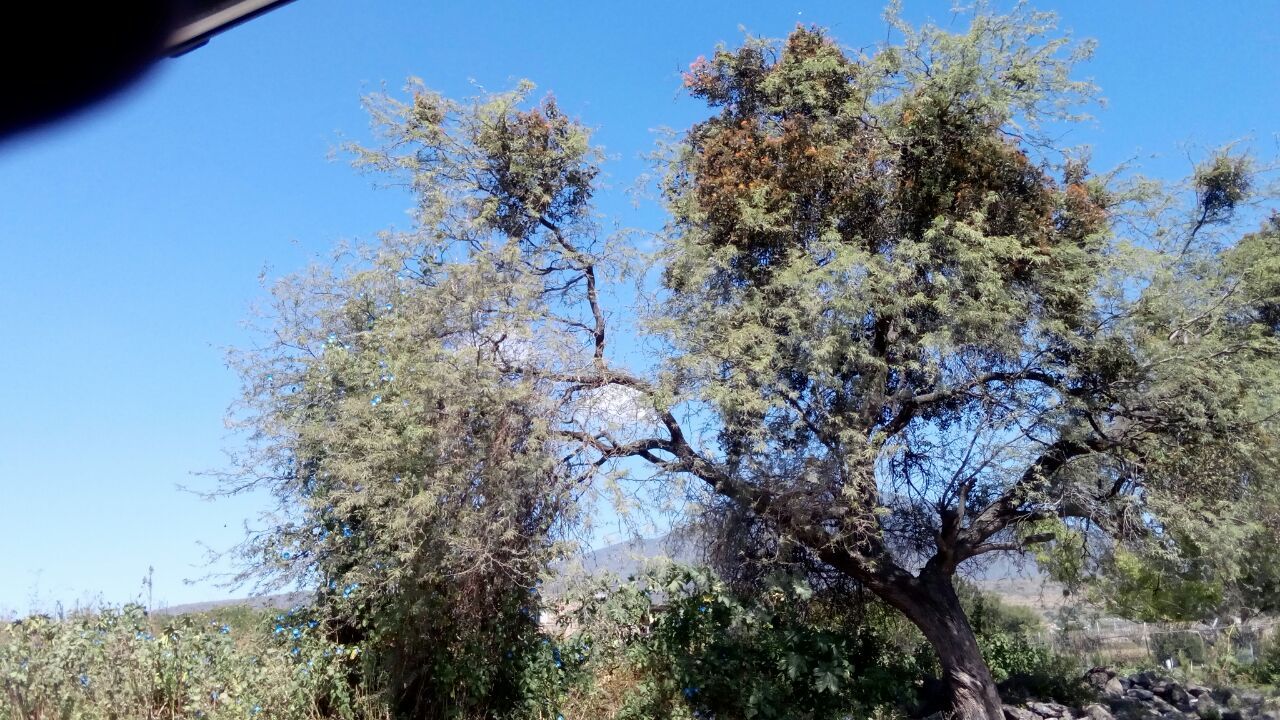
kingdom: Plantae
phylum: Tracheophyta
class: Magnoliopsida
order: Fabales
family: Fabaceae
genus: Prosopis
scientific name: Prosopis laevigata
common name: Smooth mesquite
